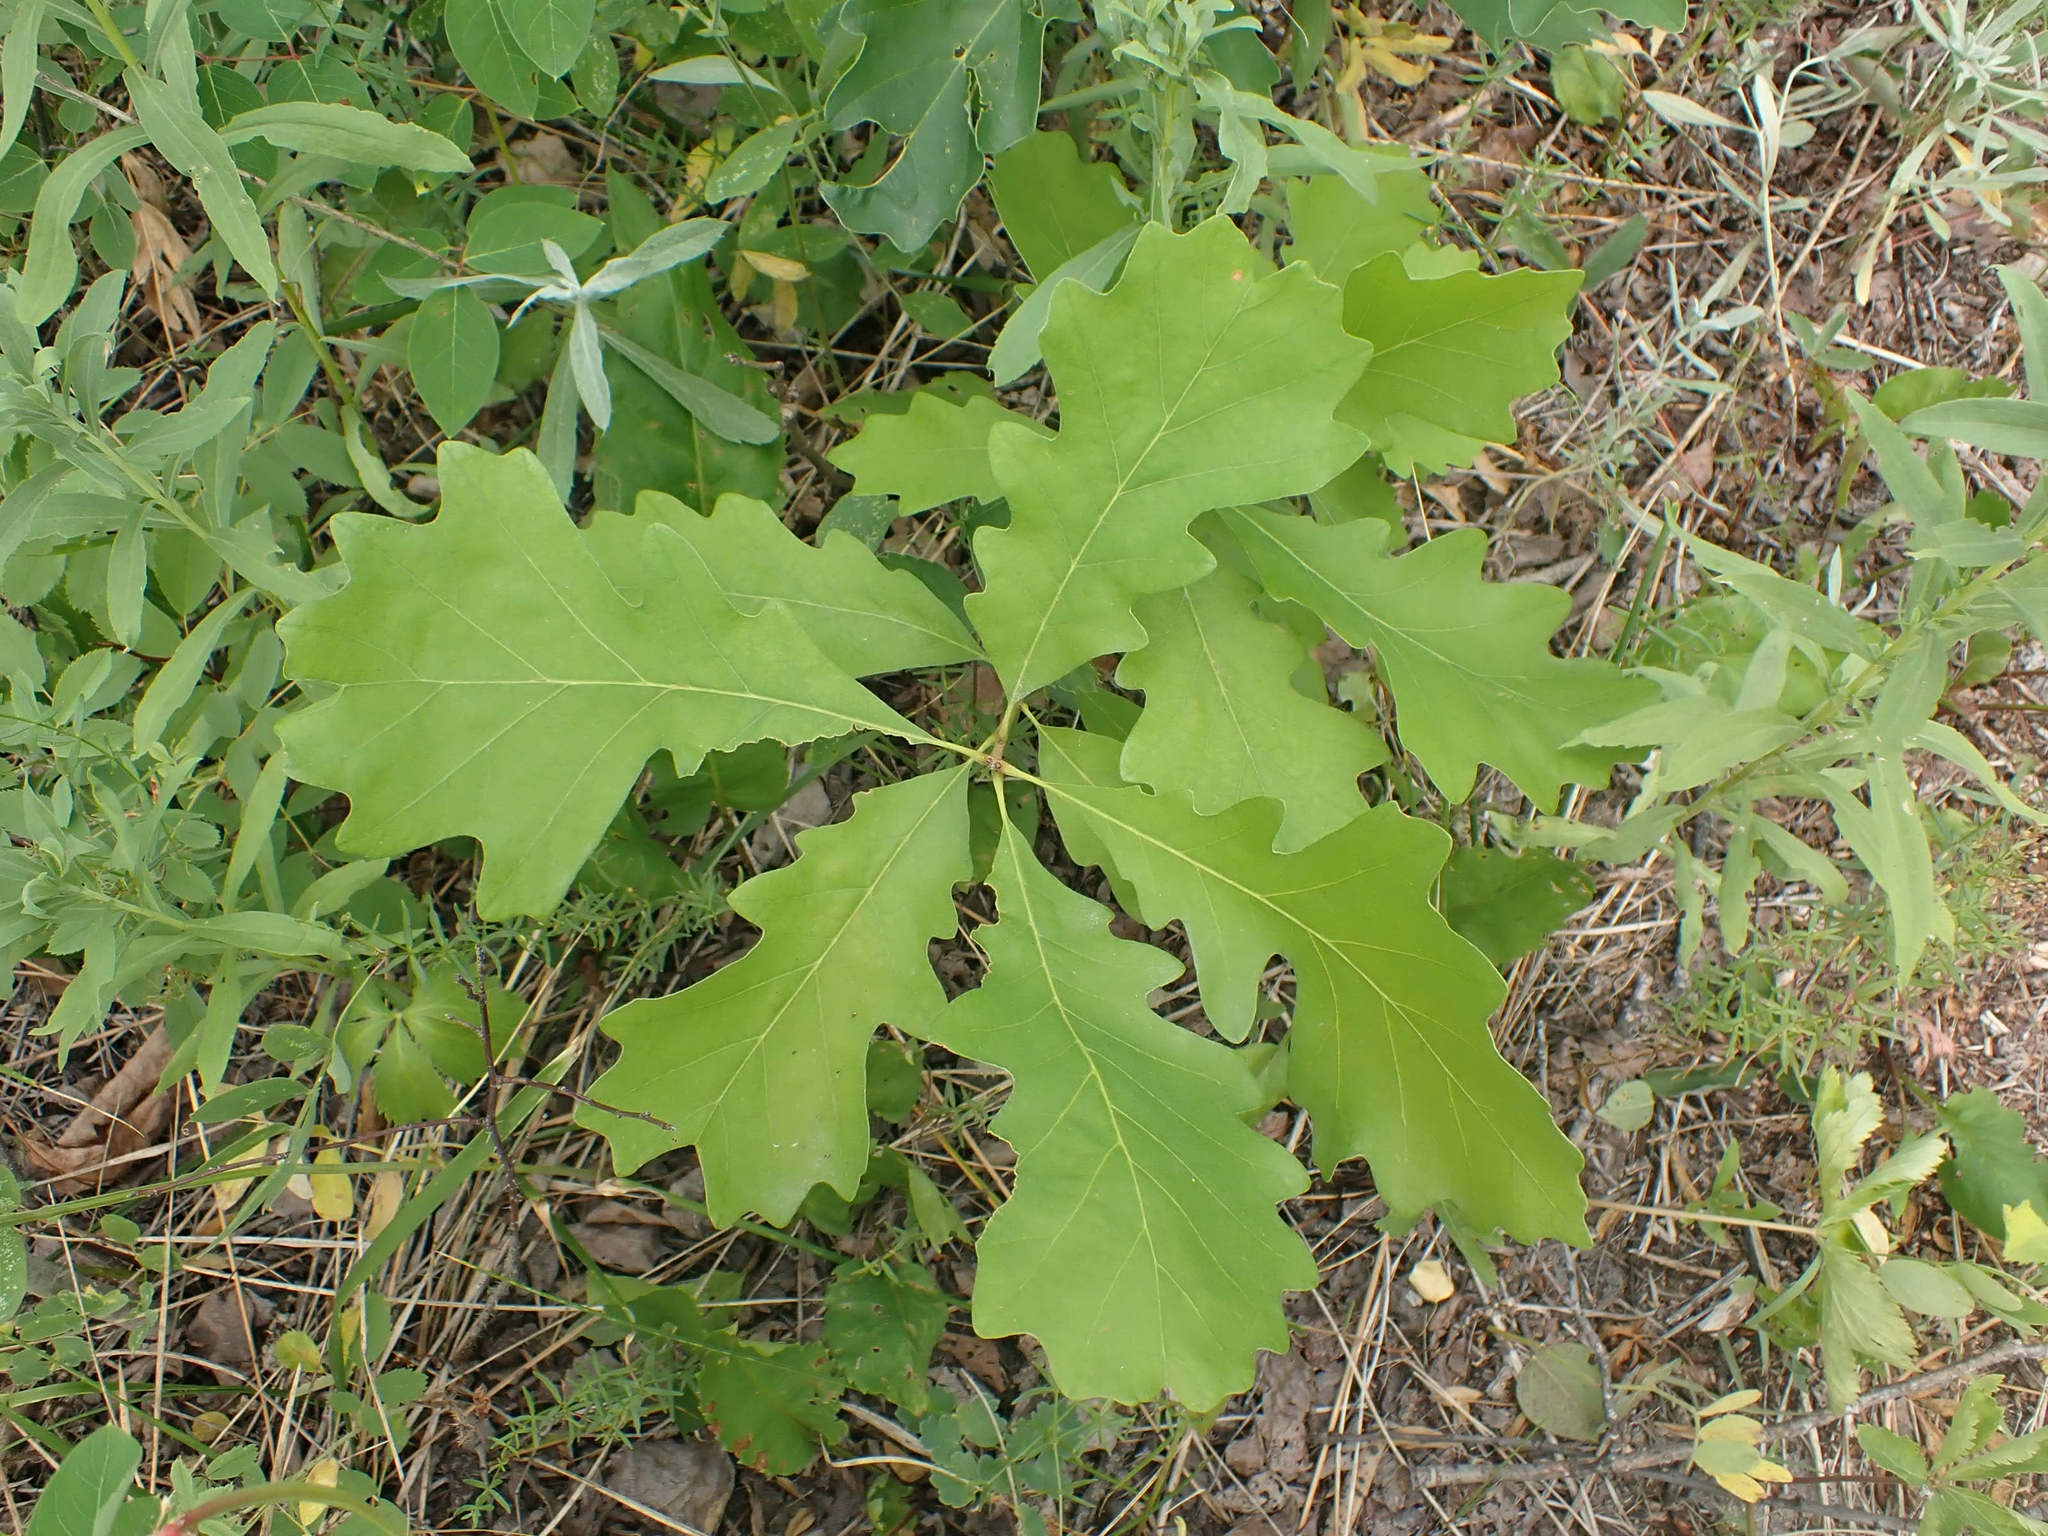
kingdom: Plantae
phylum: Tracheophyta
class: Magnoliopsida
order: Fagales
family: Fagaceae
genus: Quercus
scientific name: Quercus macrocarpa
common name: Bur oak
